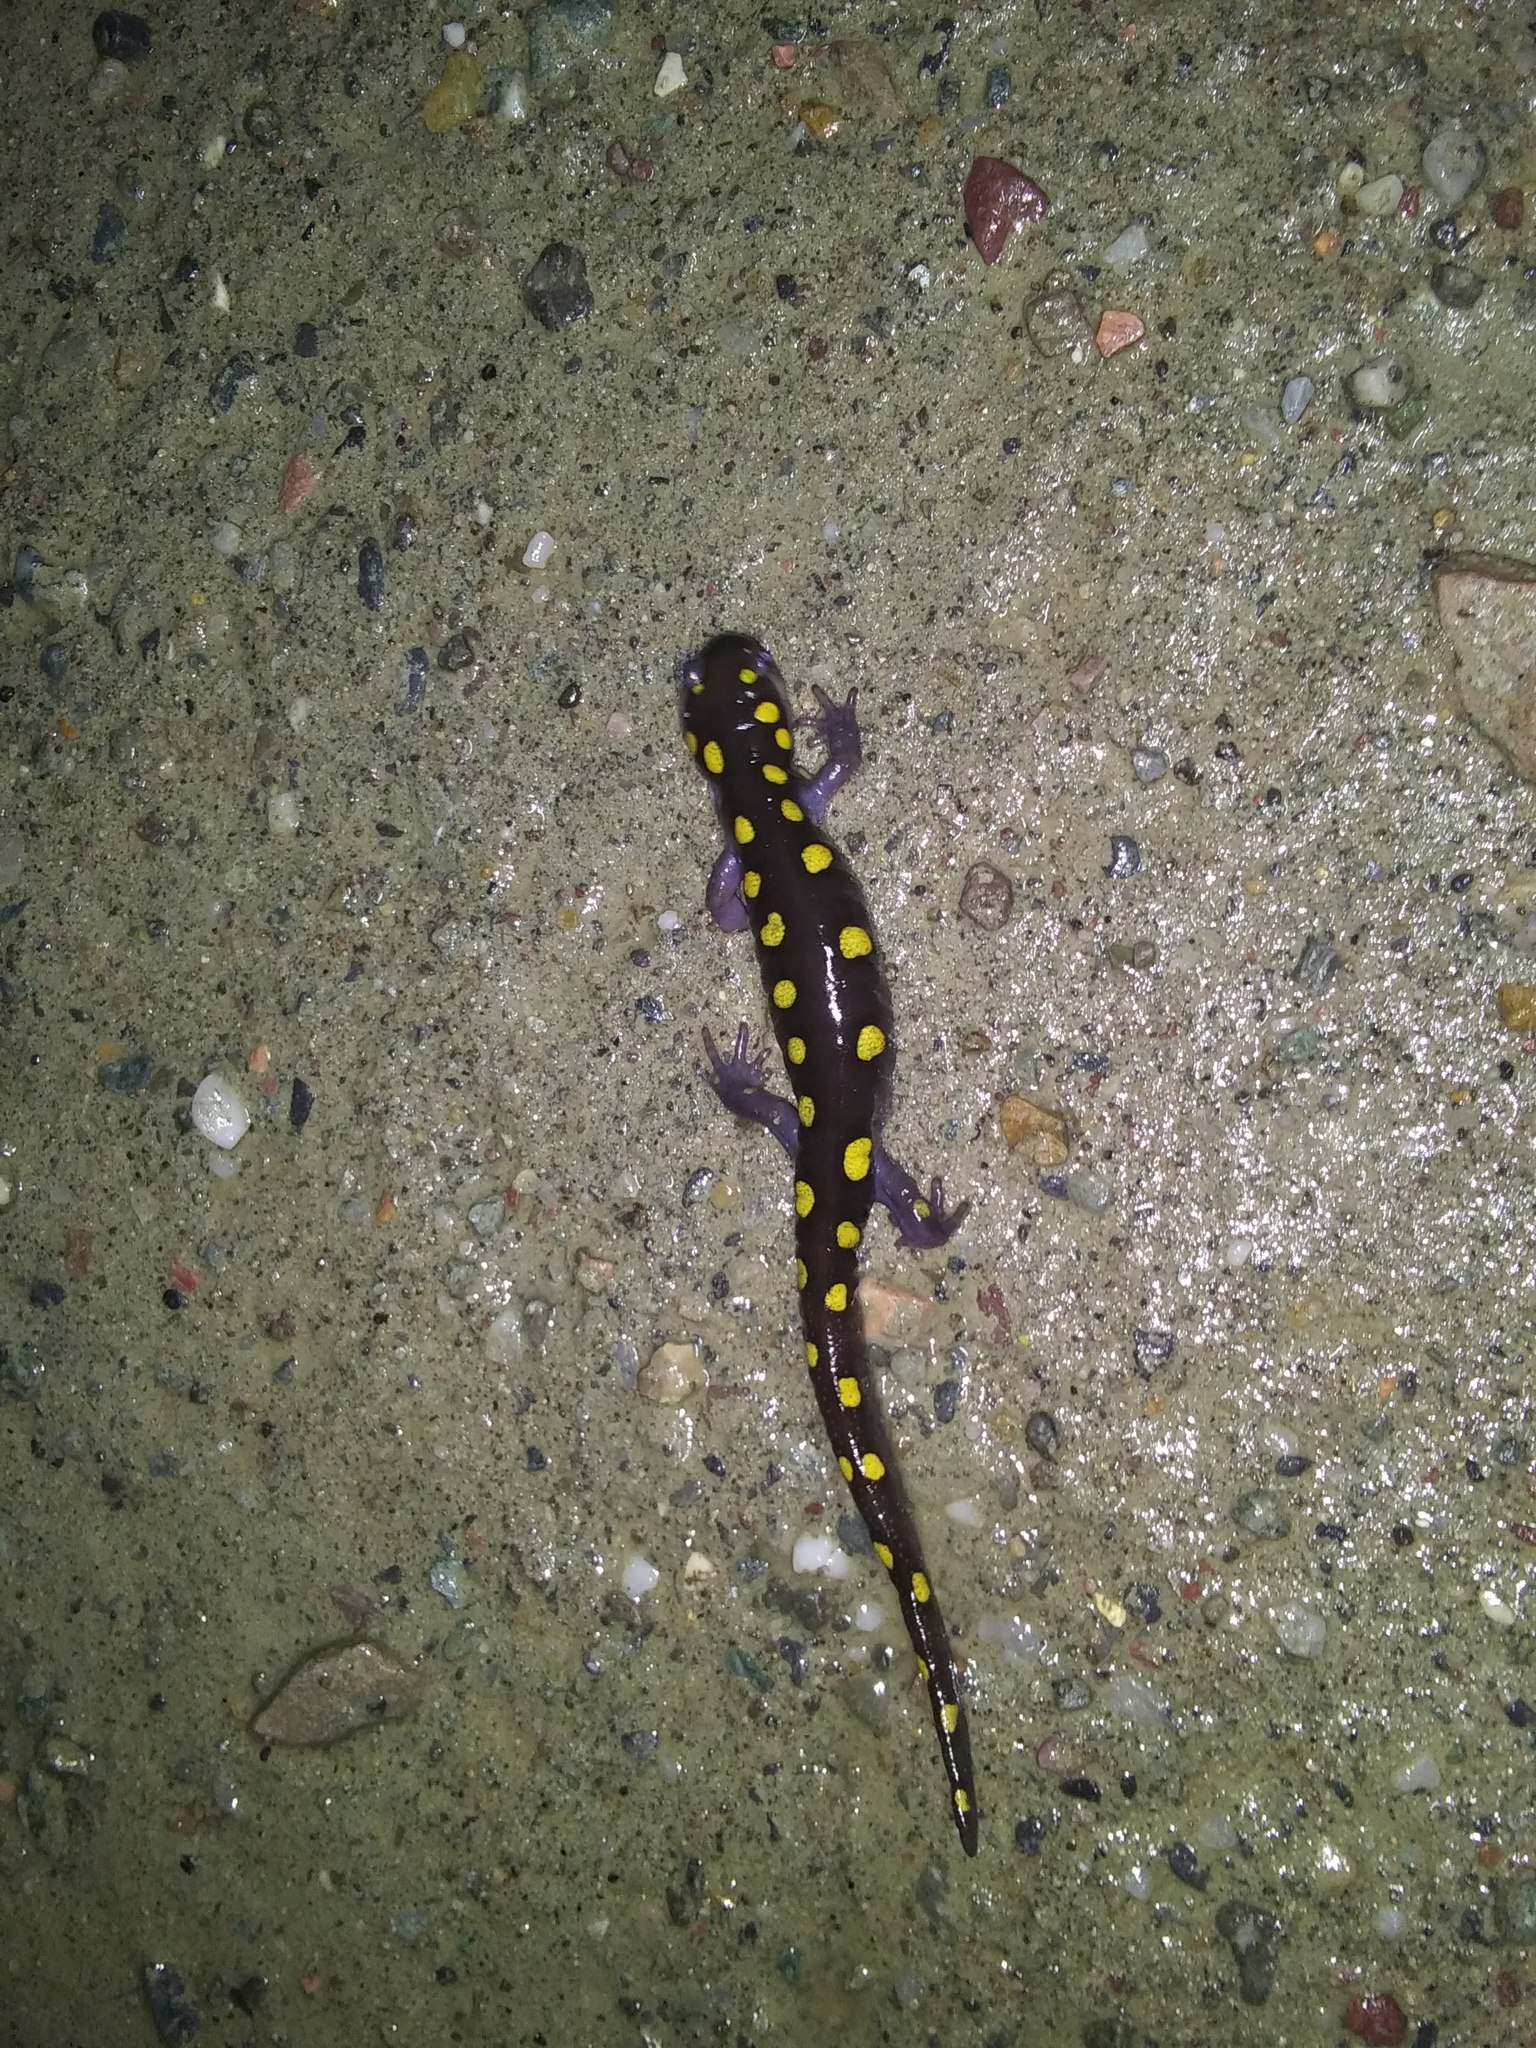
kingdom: Animalia
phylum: Chordata
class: Amphibia
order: Caudata
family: Ambystomatidae
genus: Ambystoma
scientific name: Ambystoma maculatum
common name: Spotted salamander
